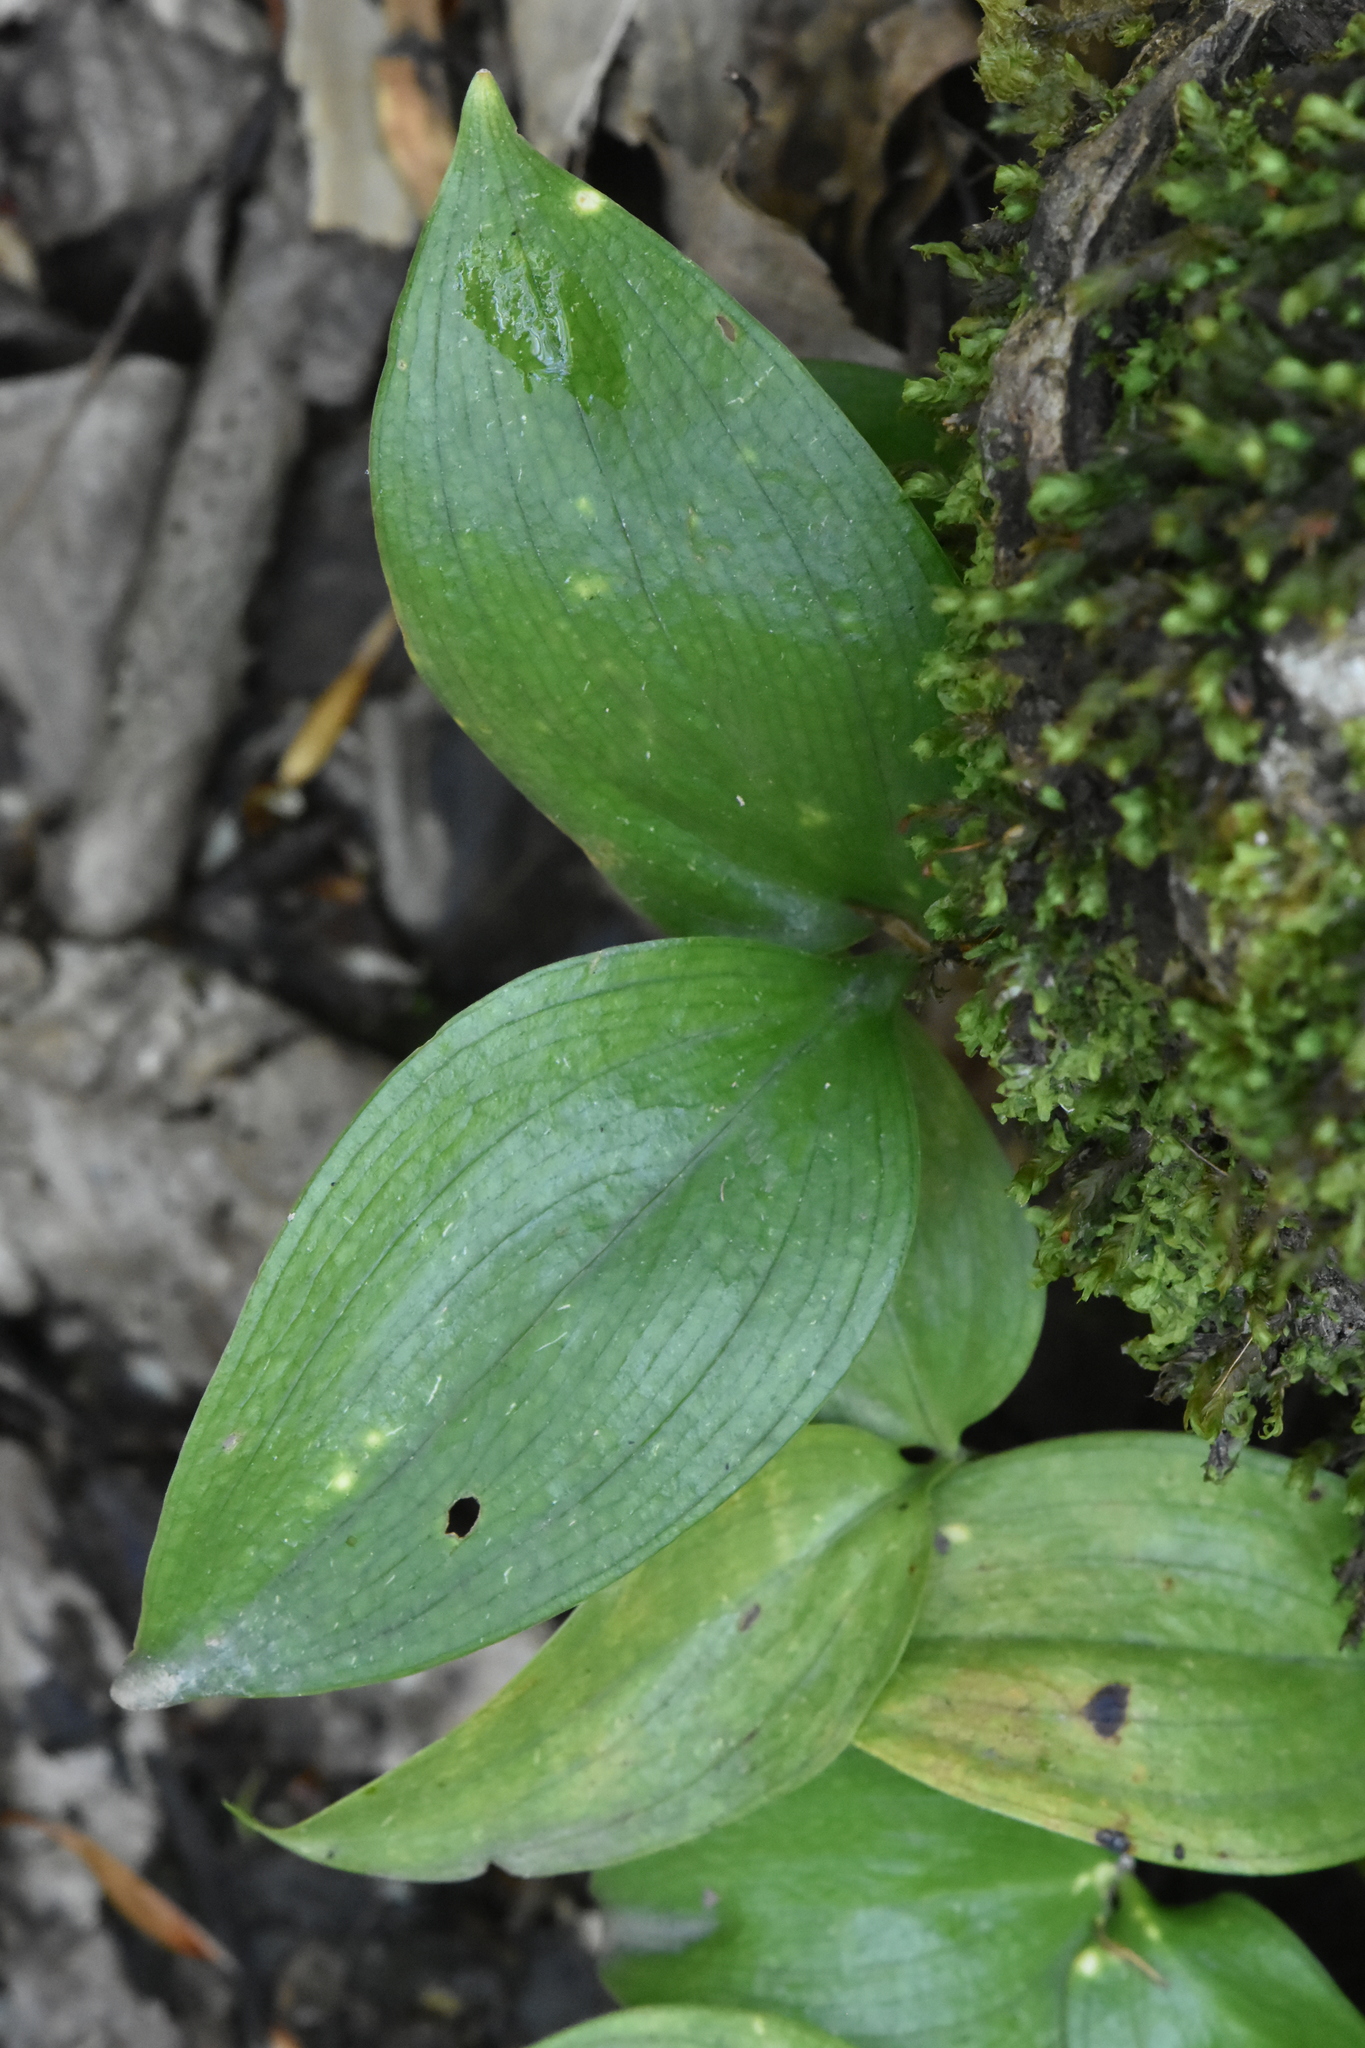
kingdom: Plantae
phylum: Tracheophyta
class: Liliopsida
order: Asparagales
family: Asparagaceae
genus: Ruscus
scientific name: Ruscus colchicus
